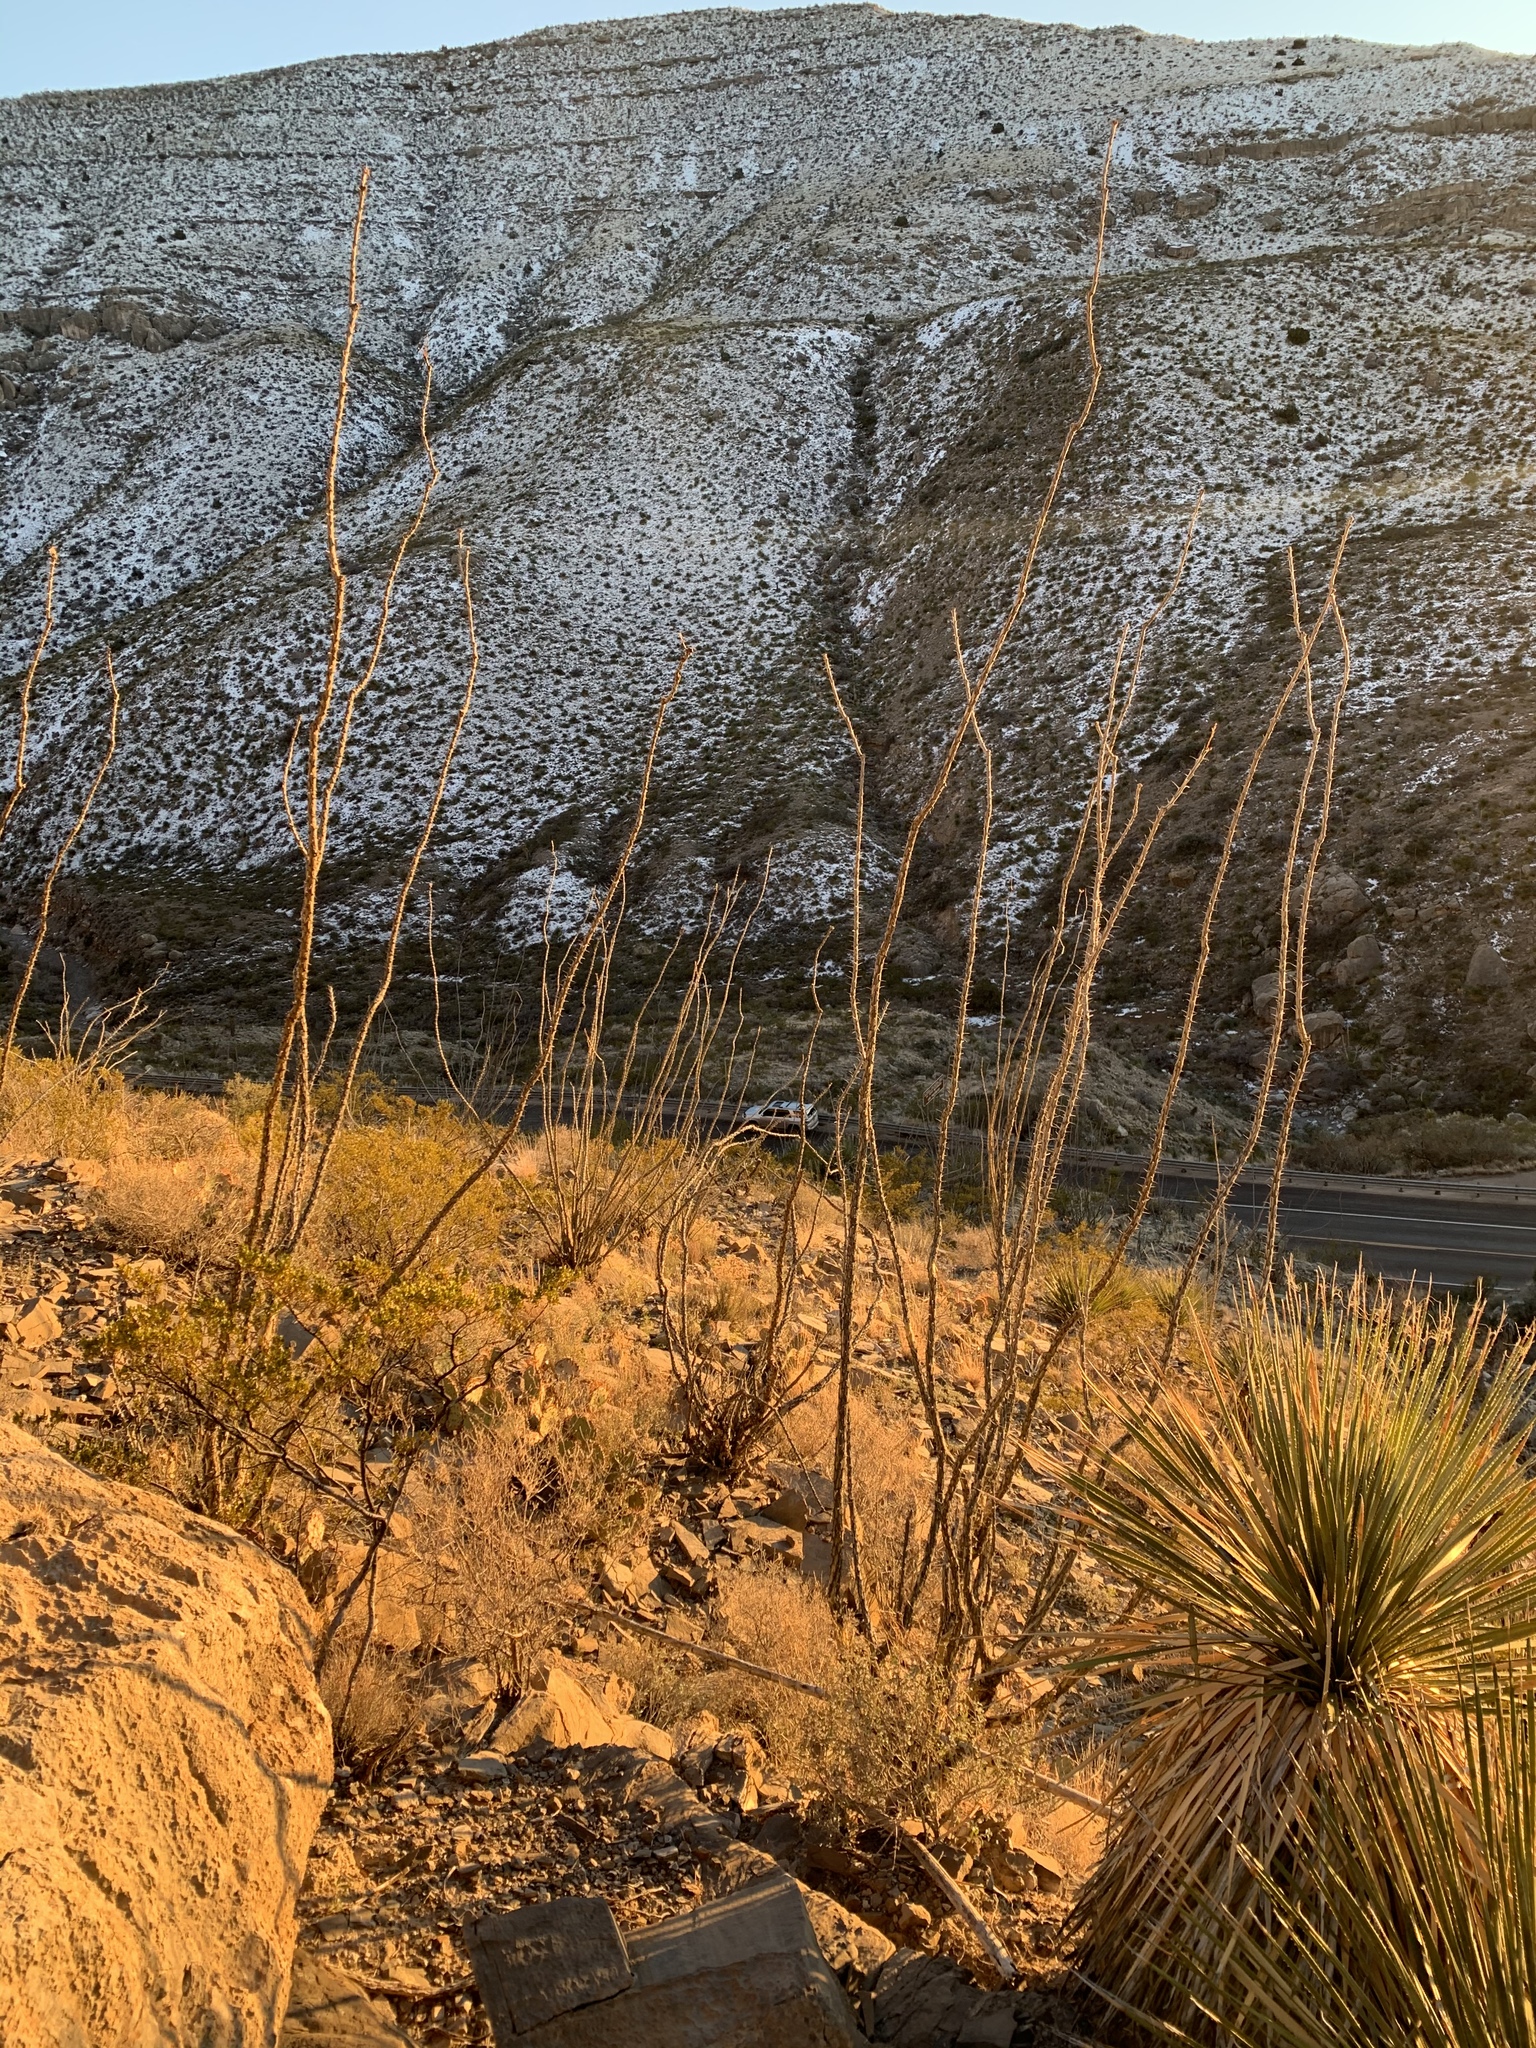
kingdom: Plantae
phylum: Tracheophyta
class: Magnoliopsida
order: Ericales
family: Fouquieriaceae
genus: Fouquieria
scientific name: Fouquieria splendens
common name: Vine-cactus
